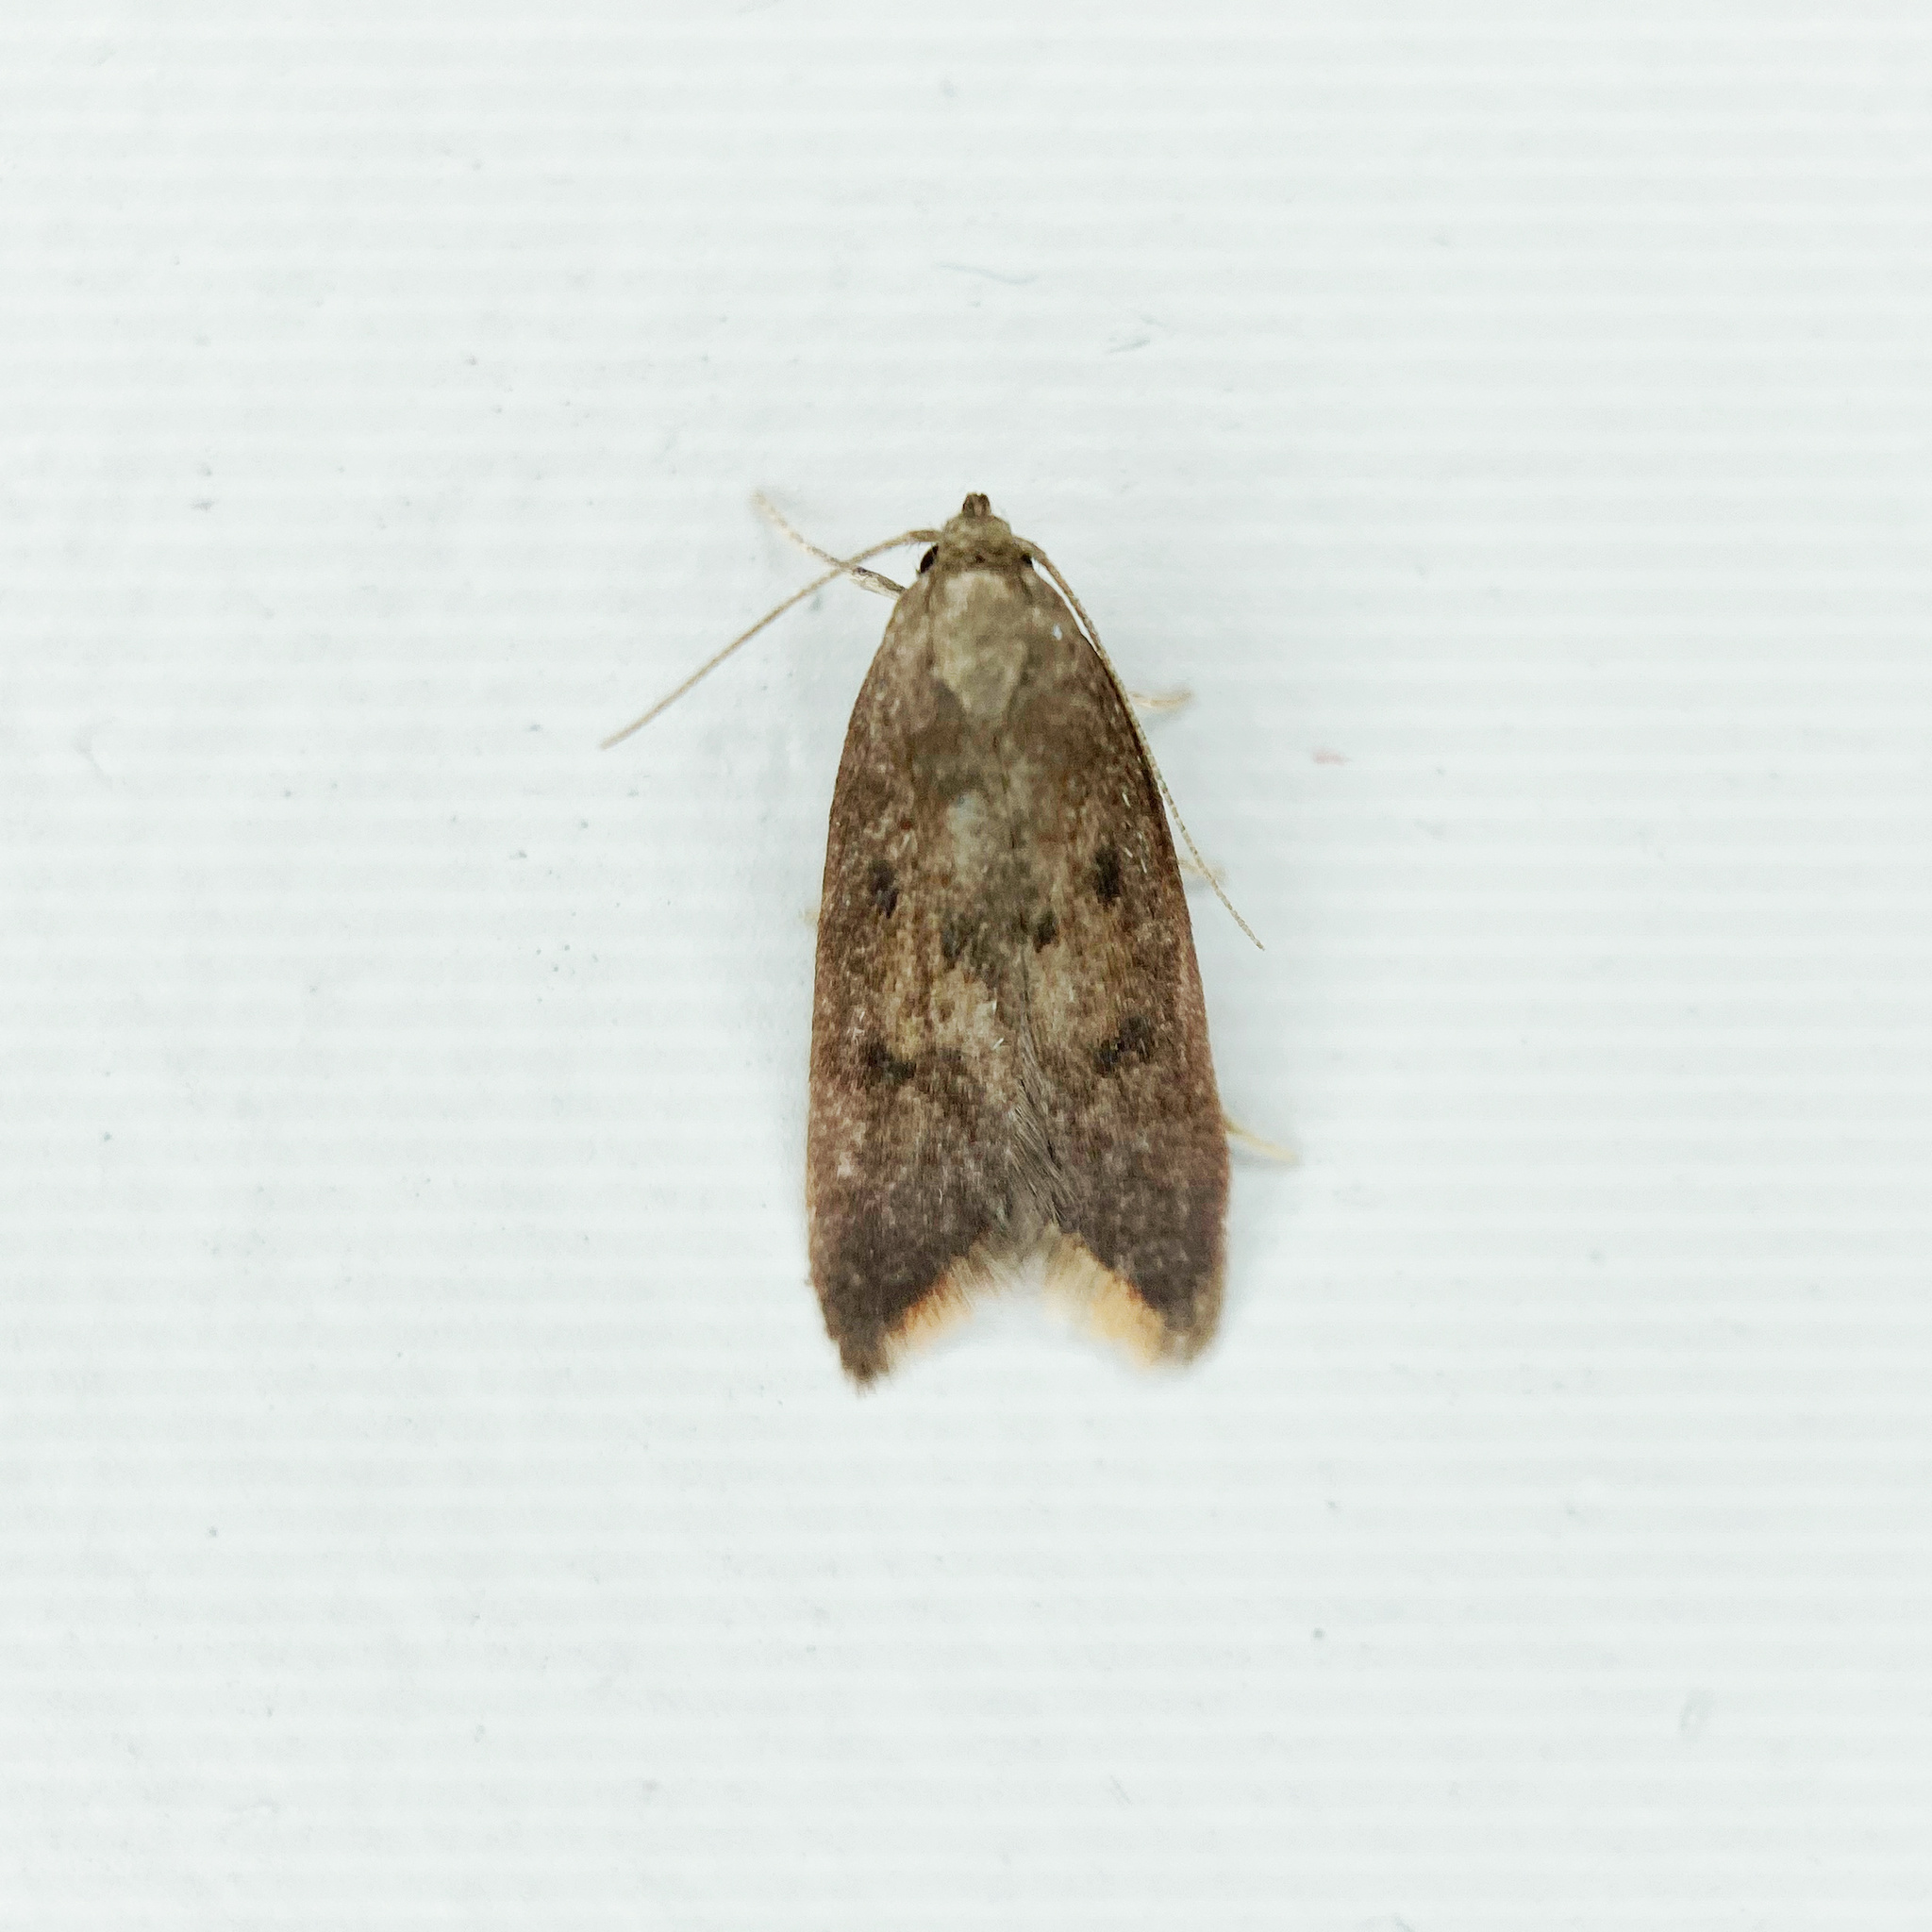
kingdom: Animalia
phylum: Arthropoda
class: Insecta
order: Lepidoptera
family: Oecophoridae
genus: Tachystola
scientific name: Tachystola acroxantha
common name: Ruddy streak
